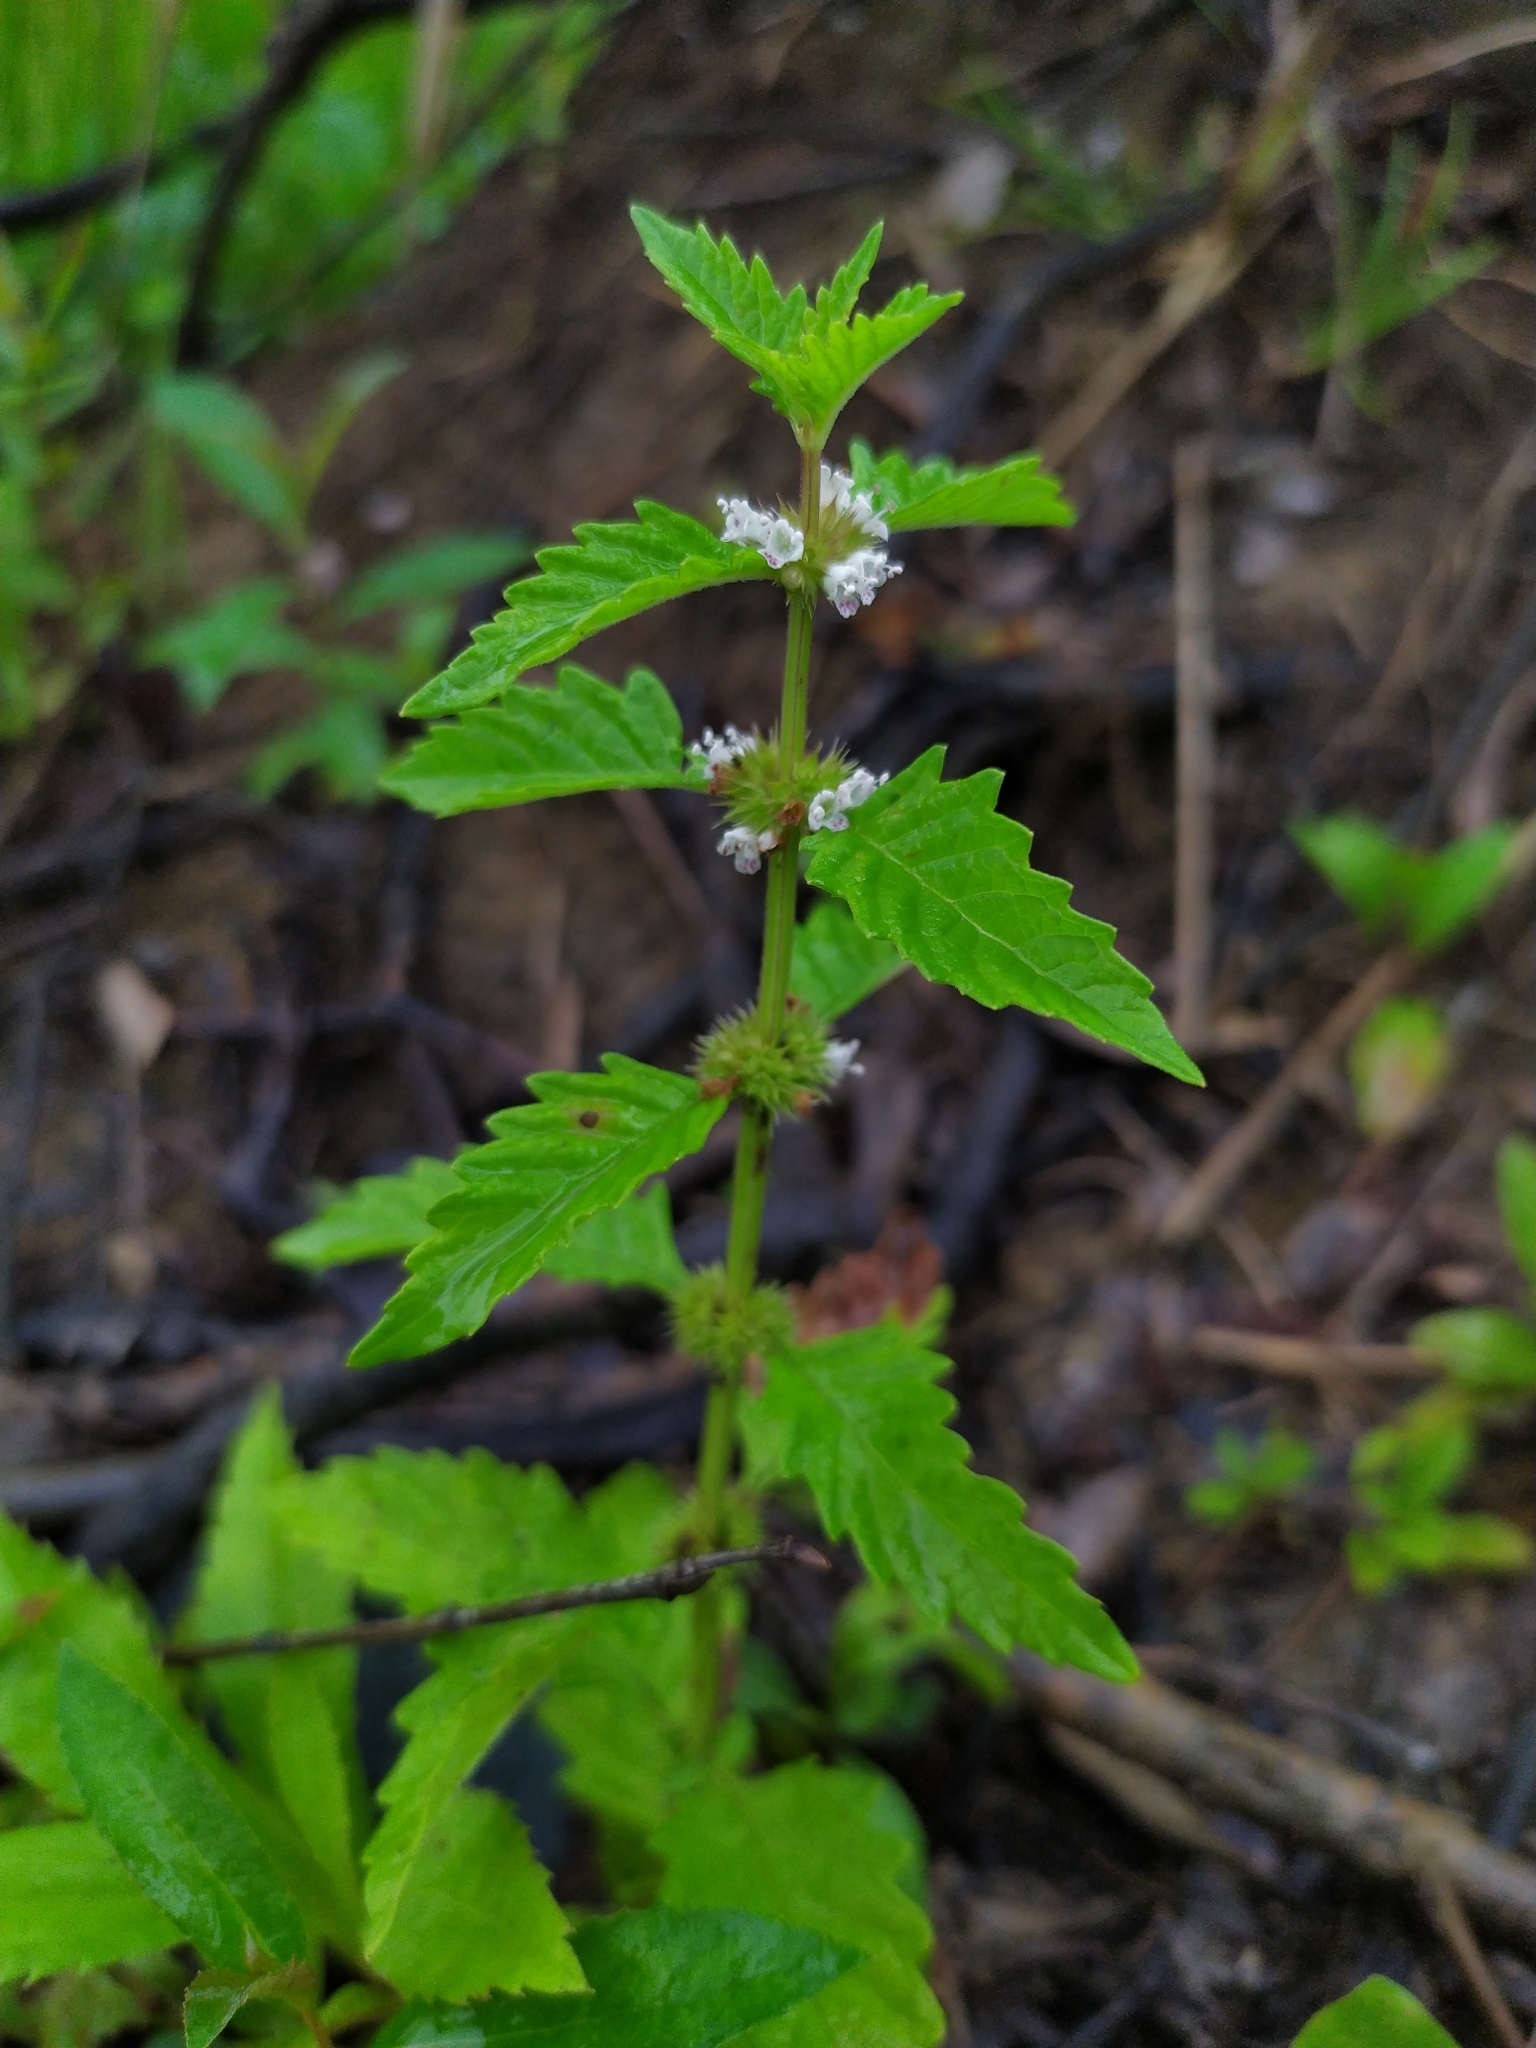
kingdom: Plantae
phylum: Tracheophyta
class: Magnoliopsida
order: Lamiales
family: Lamiaceae
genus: Lycopus
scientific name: Lycopus europaeus
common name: European bugleweed
